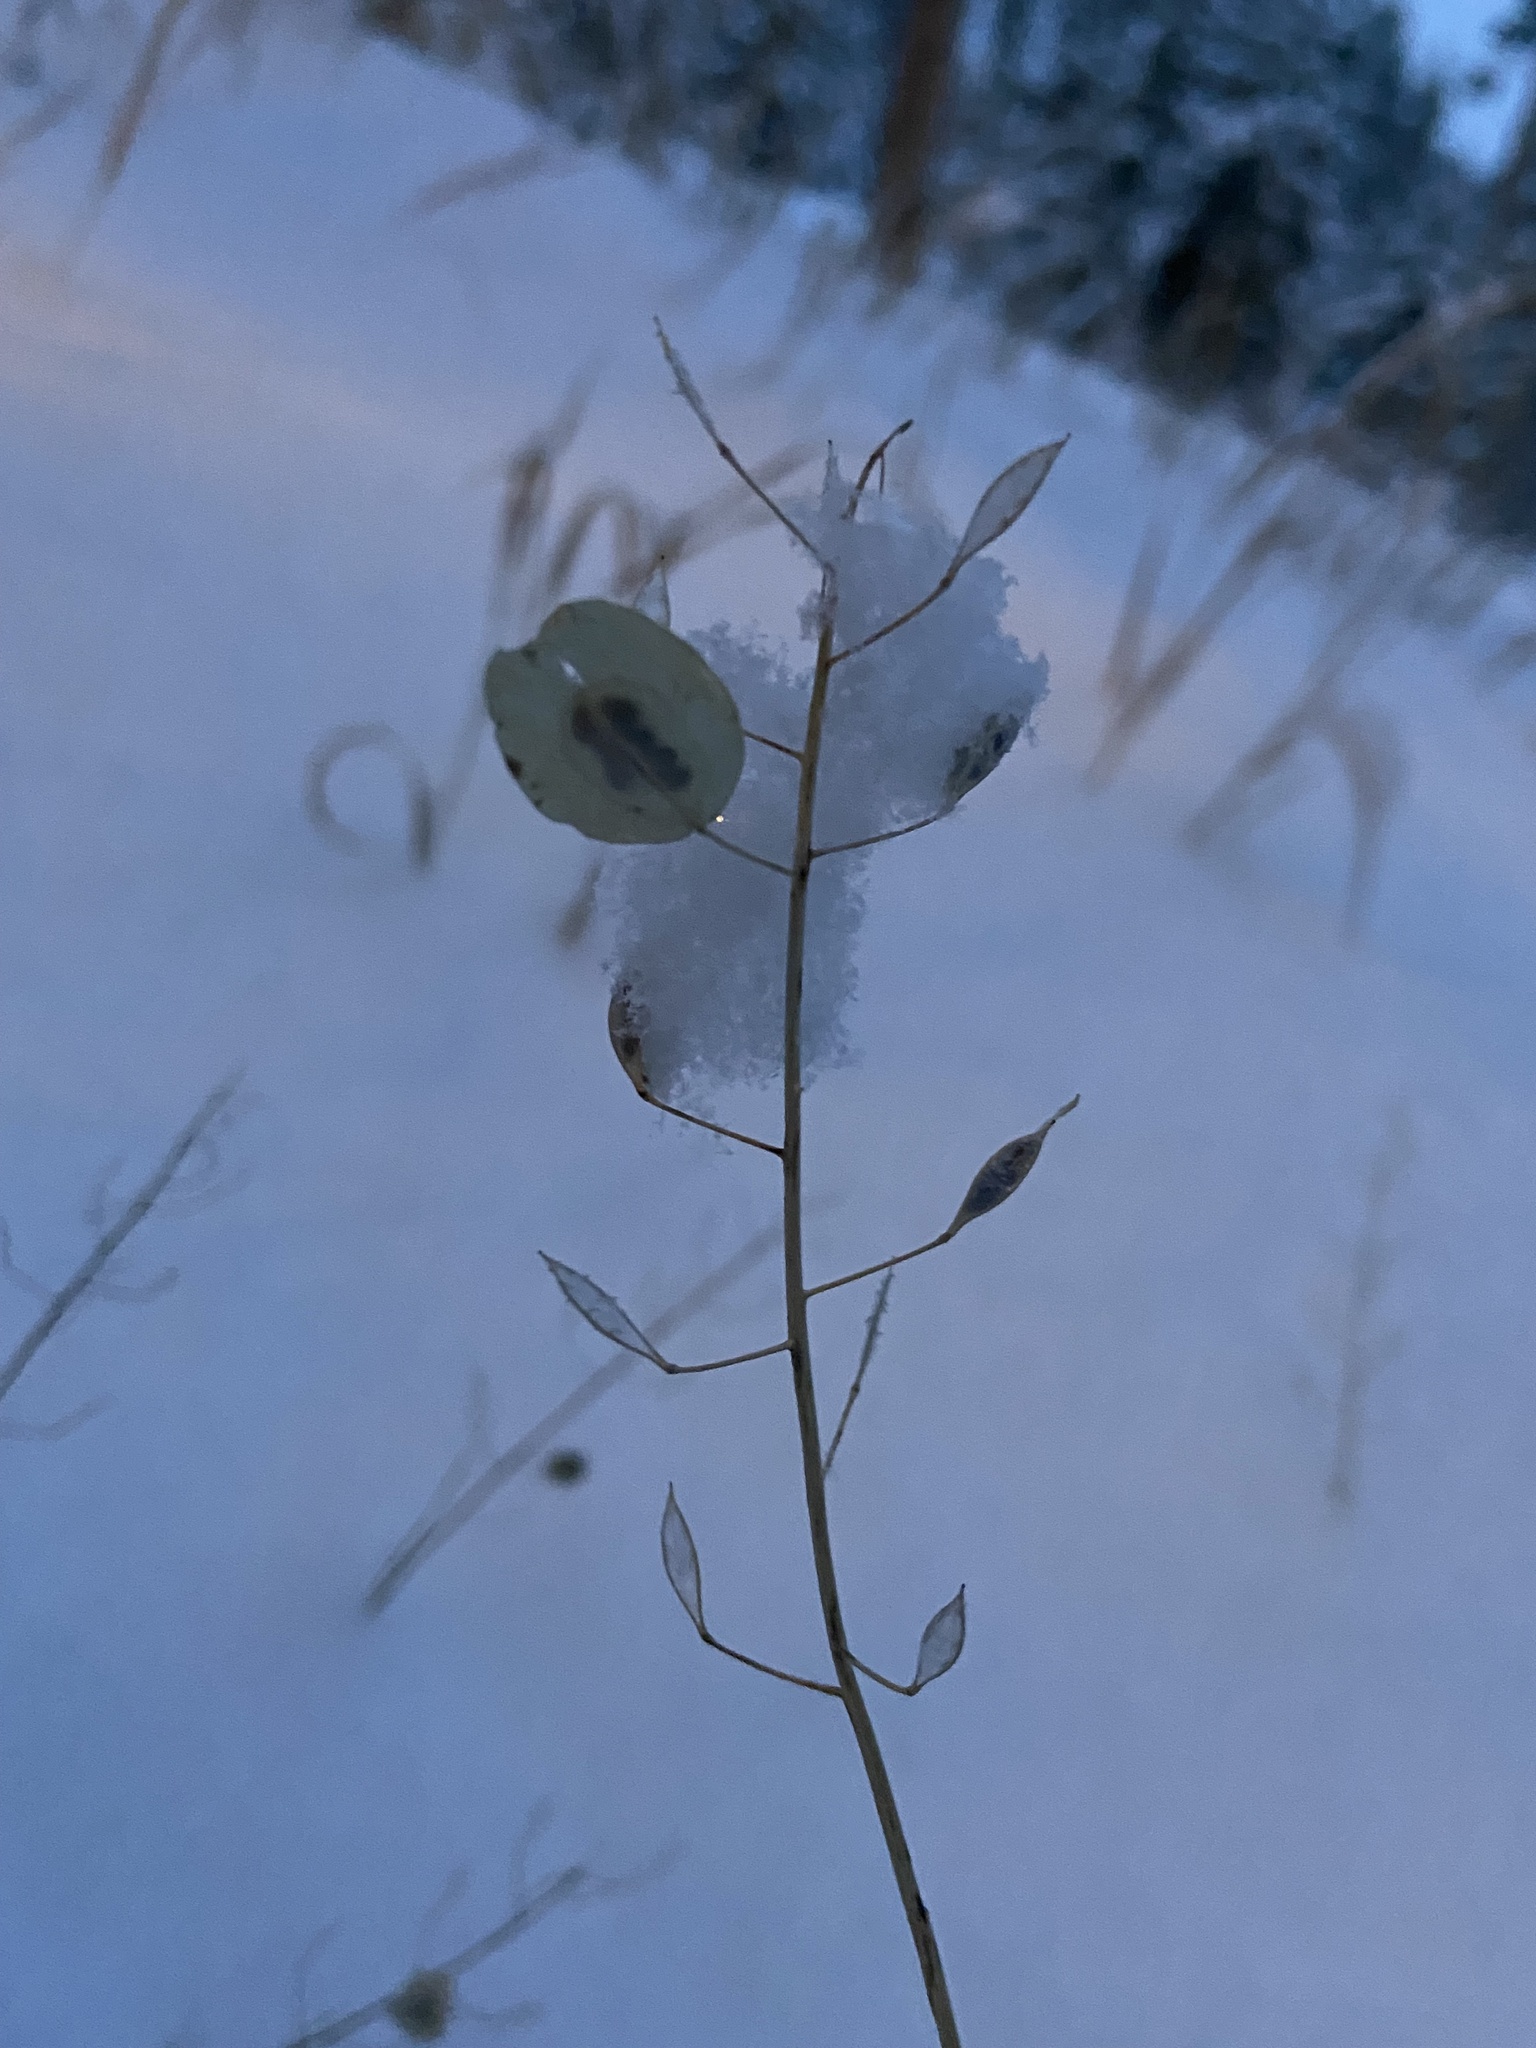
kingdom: Plantae
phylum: Tracheophyta
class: Magnoliopsida
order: Brassicales
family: Brassicaceae
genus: Thlaspi
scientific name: Thlaspi arvense
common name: Field pennycress
